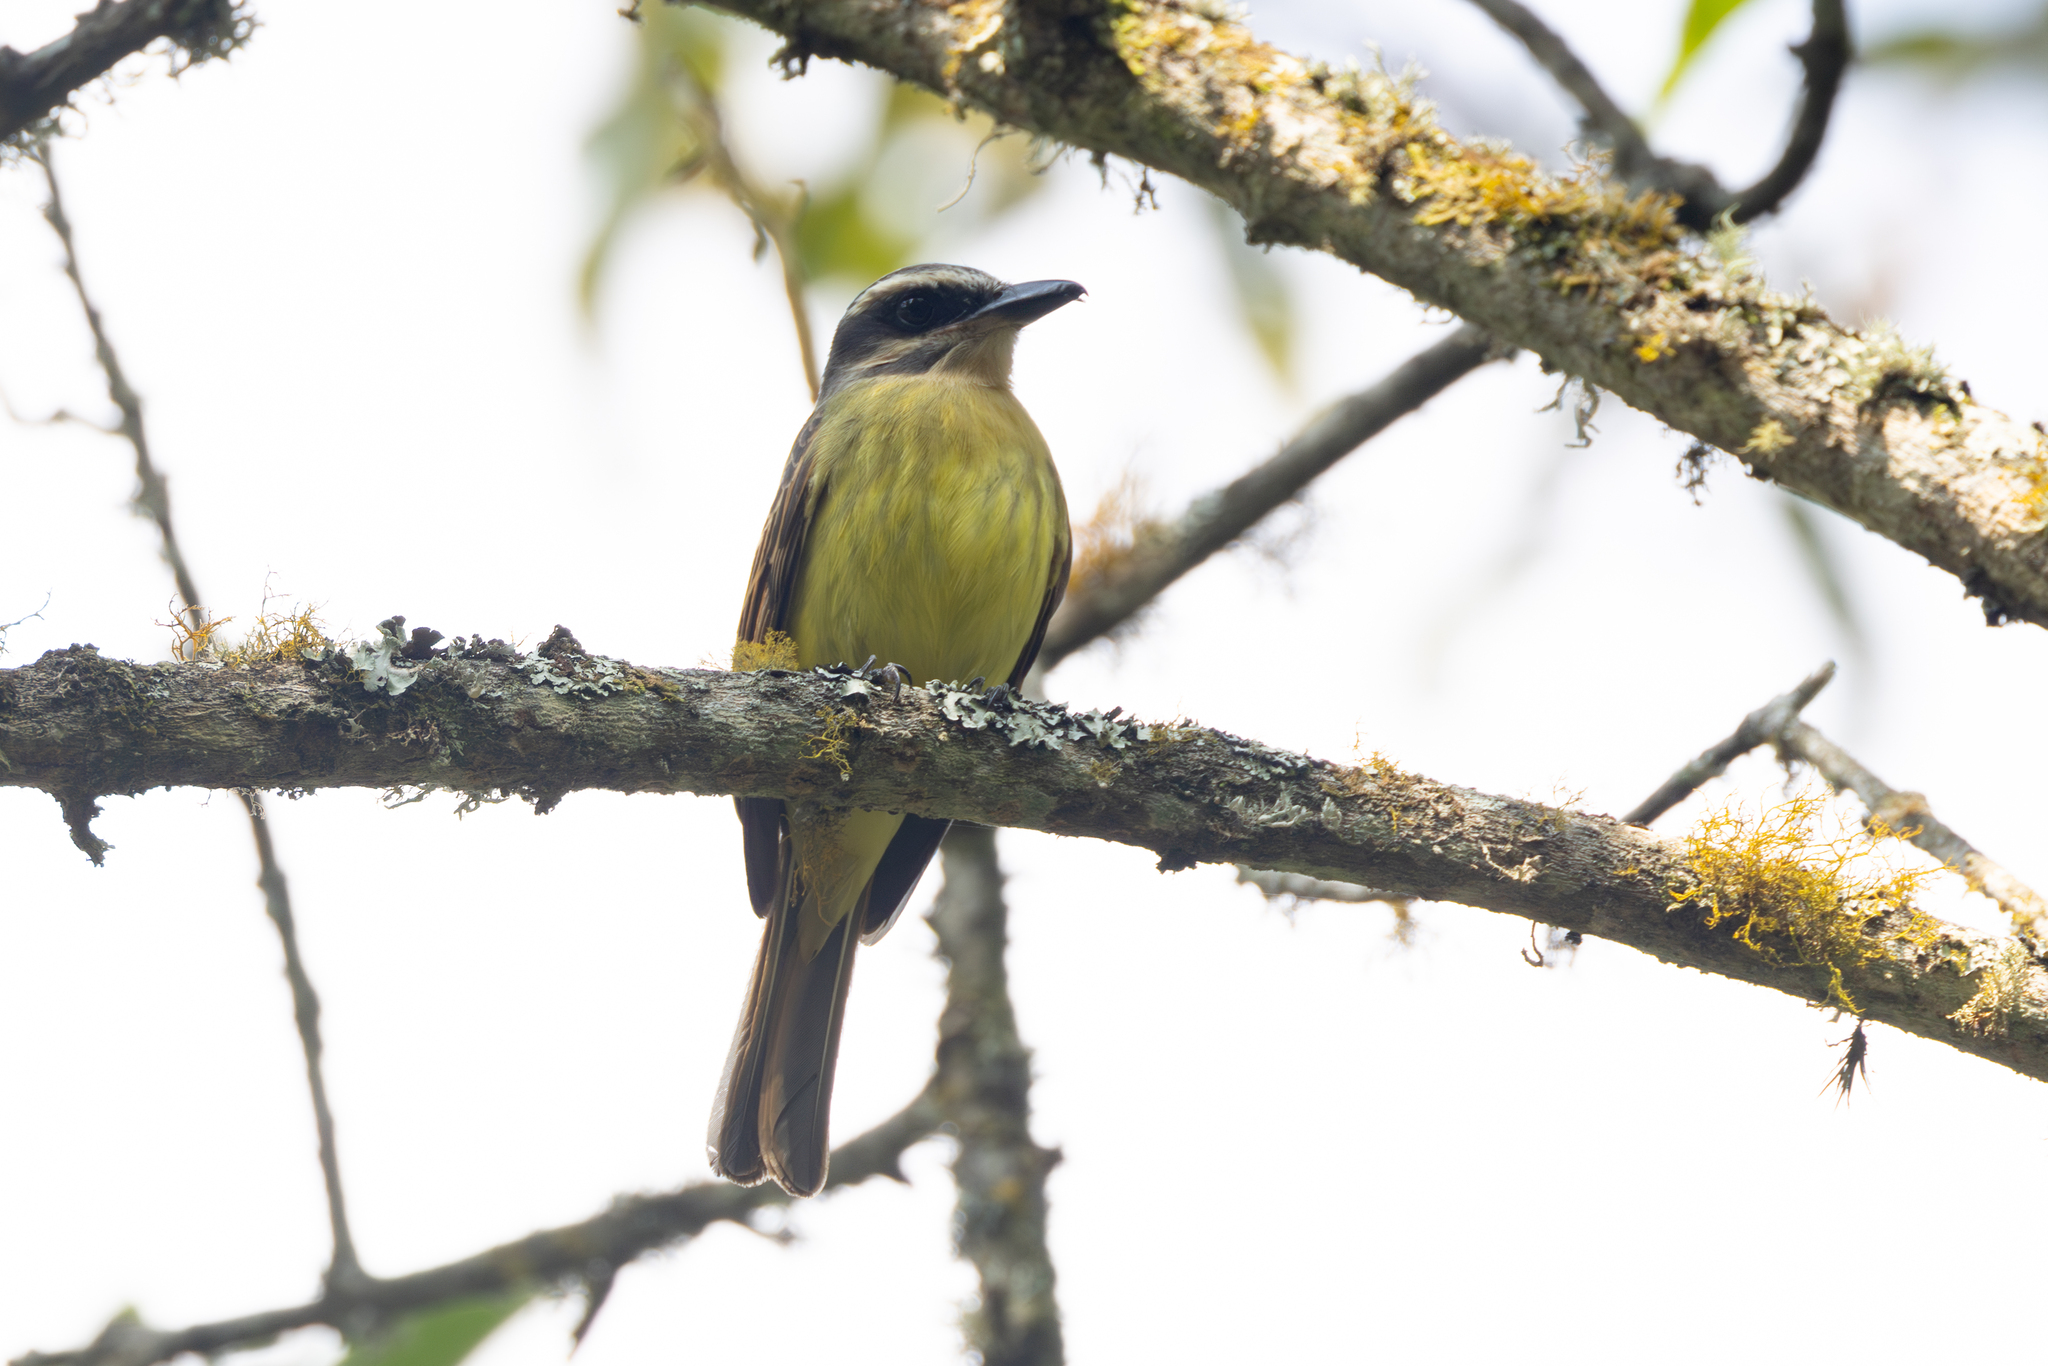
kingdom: Animalia
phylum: Chordata
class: Aves
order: Passeriformes
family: Tyrannidae
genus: Myiodynastes
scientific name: Myiodynastes hemichrysus
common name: Golden-bellied flycatcher
